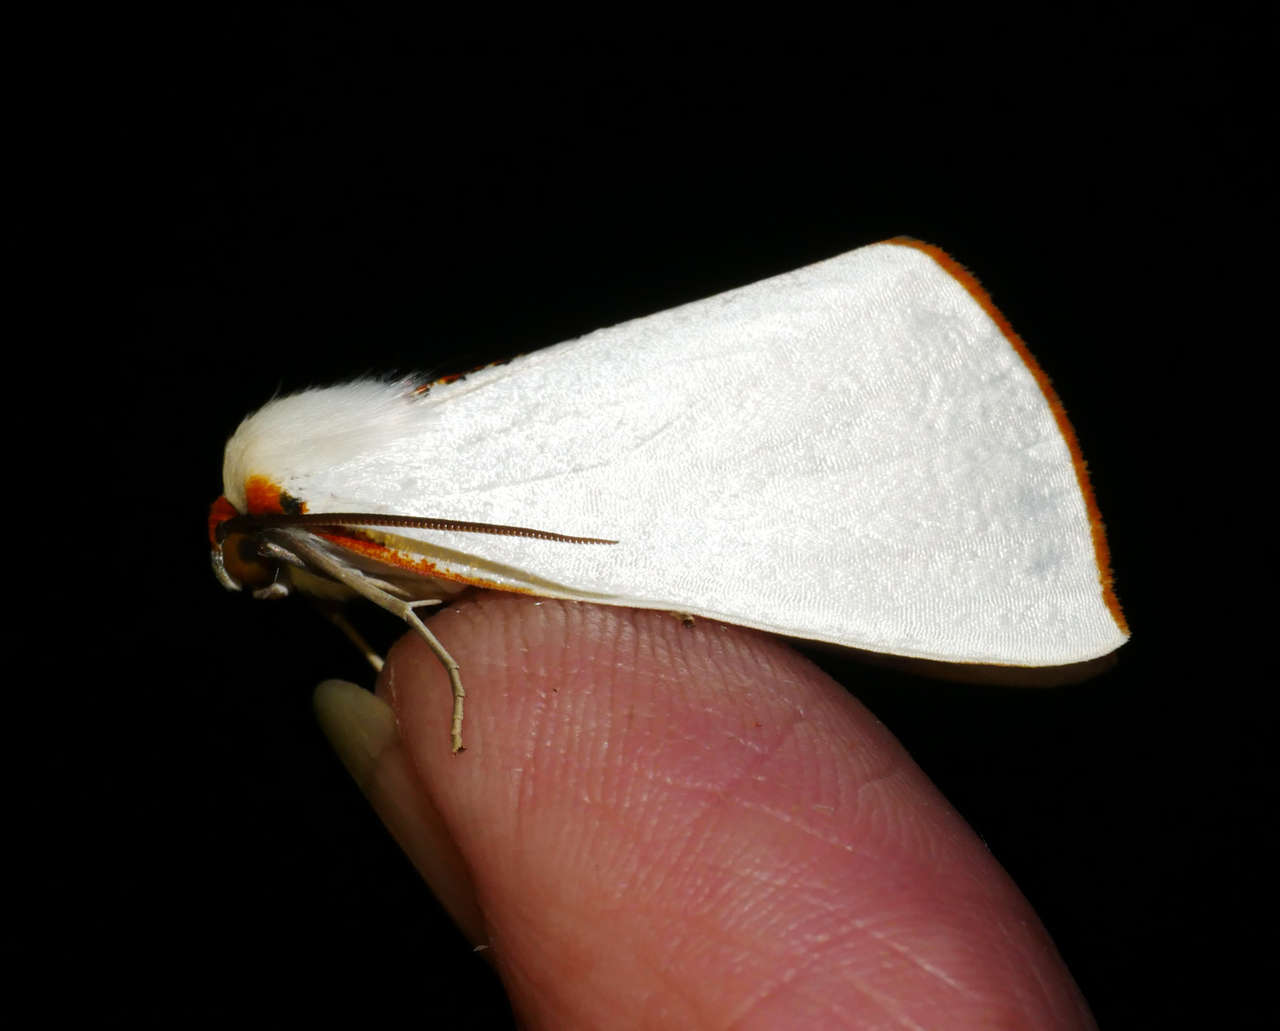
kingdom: Animalia
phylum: Arthropoda
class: Insecta
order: Lepidoptera
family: Geometridae
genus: Thalaina
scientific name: Thalaina selenaea
